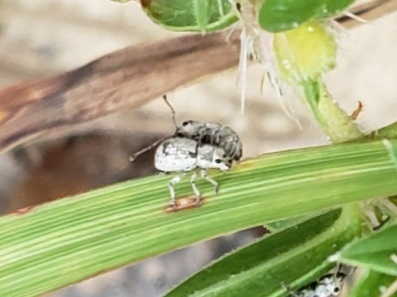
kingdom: Animalia
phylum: Arthropoda
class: Insecta
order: Coleoptera
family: Curculionidae
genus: Neoptochus
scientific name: Neoptochus adspersus
